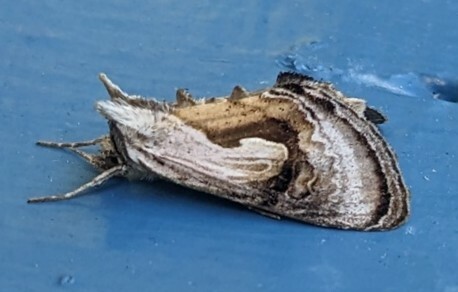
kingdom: Animalia
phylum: Arthropoda
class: Insecta
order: Lepidoptera
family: Noctuidae
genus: Chrysanympha
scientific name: Chrysanympha formosa
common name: Formosa looper moth
